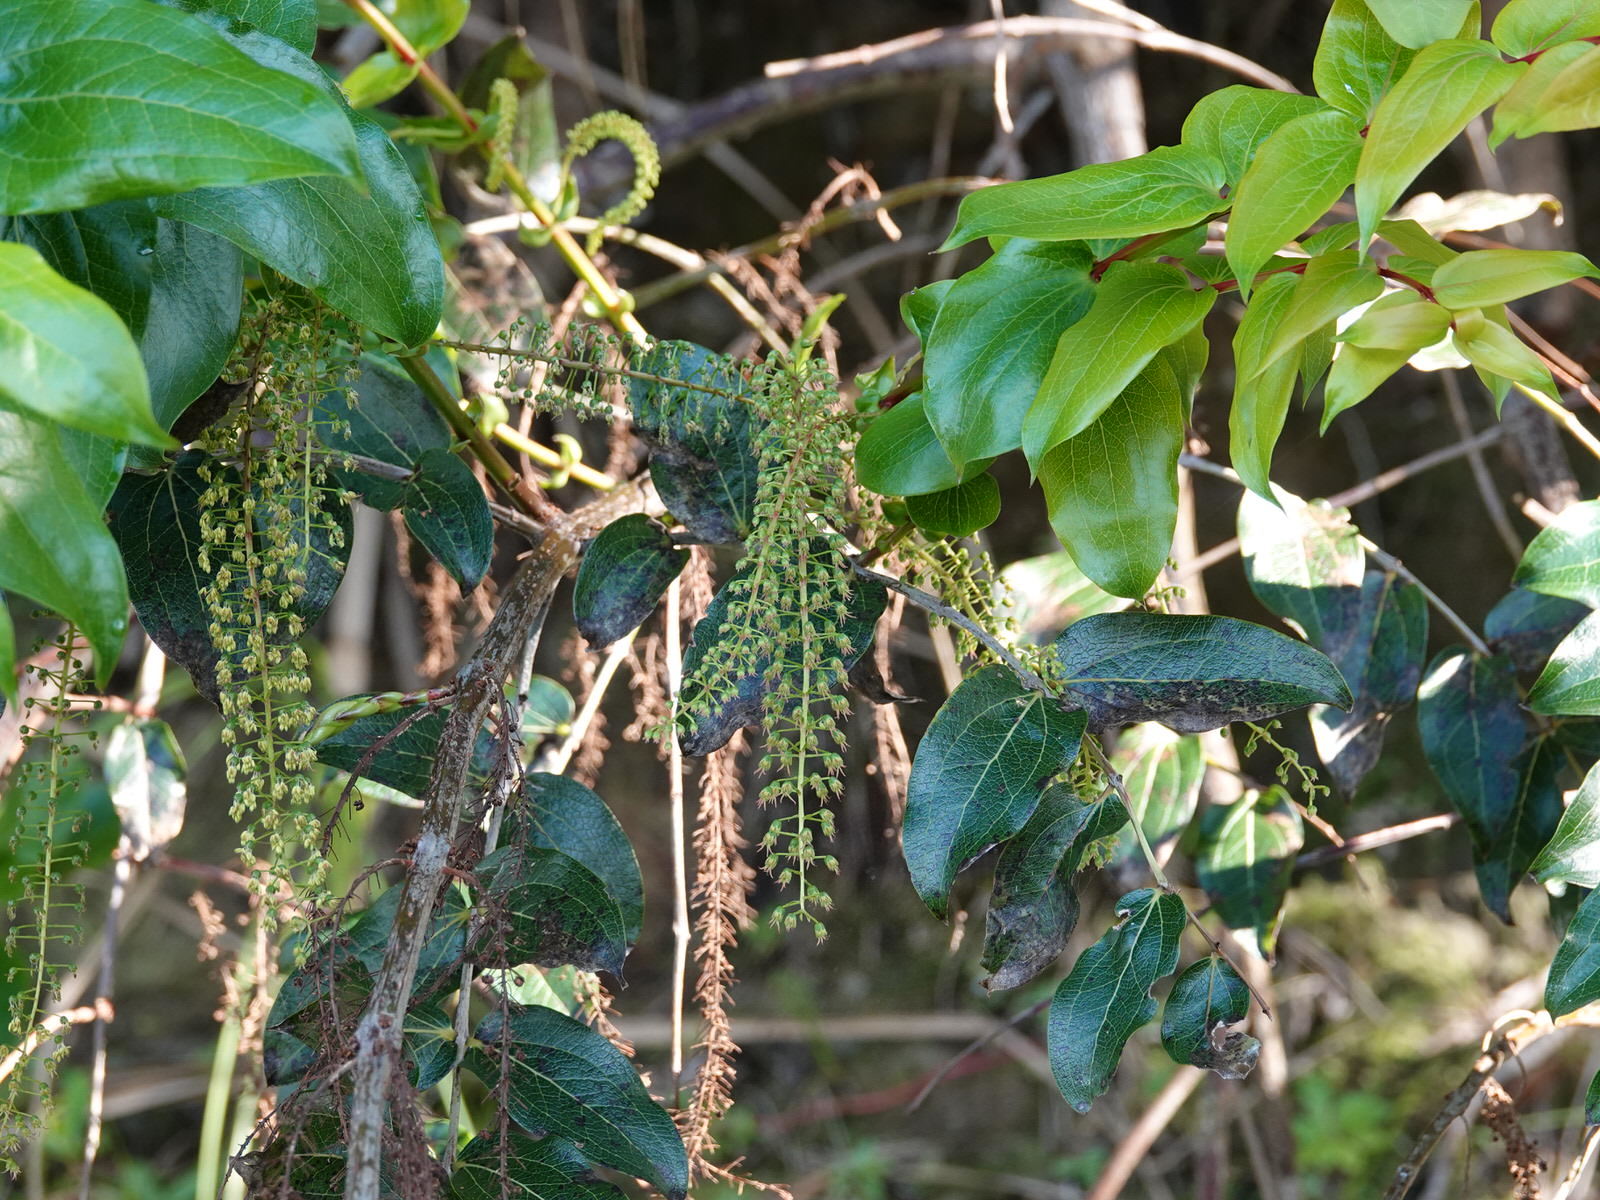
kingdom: Plantae
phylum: Tracheophyta
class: Magnoliopsida
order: Cucurbitales
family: Coriariaceae
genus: Coriaria
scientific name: Coriaria arborea
